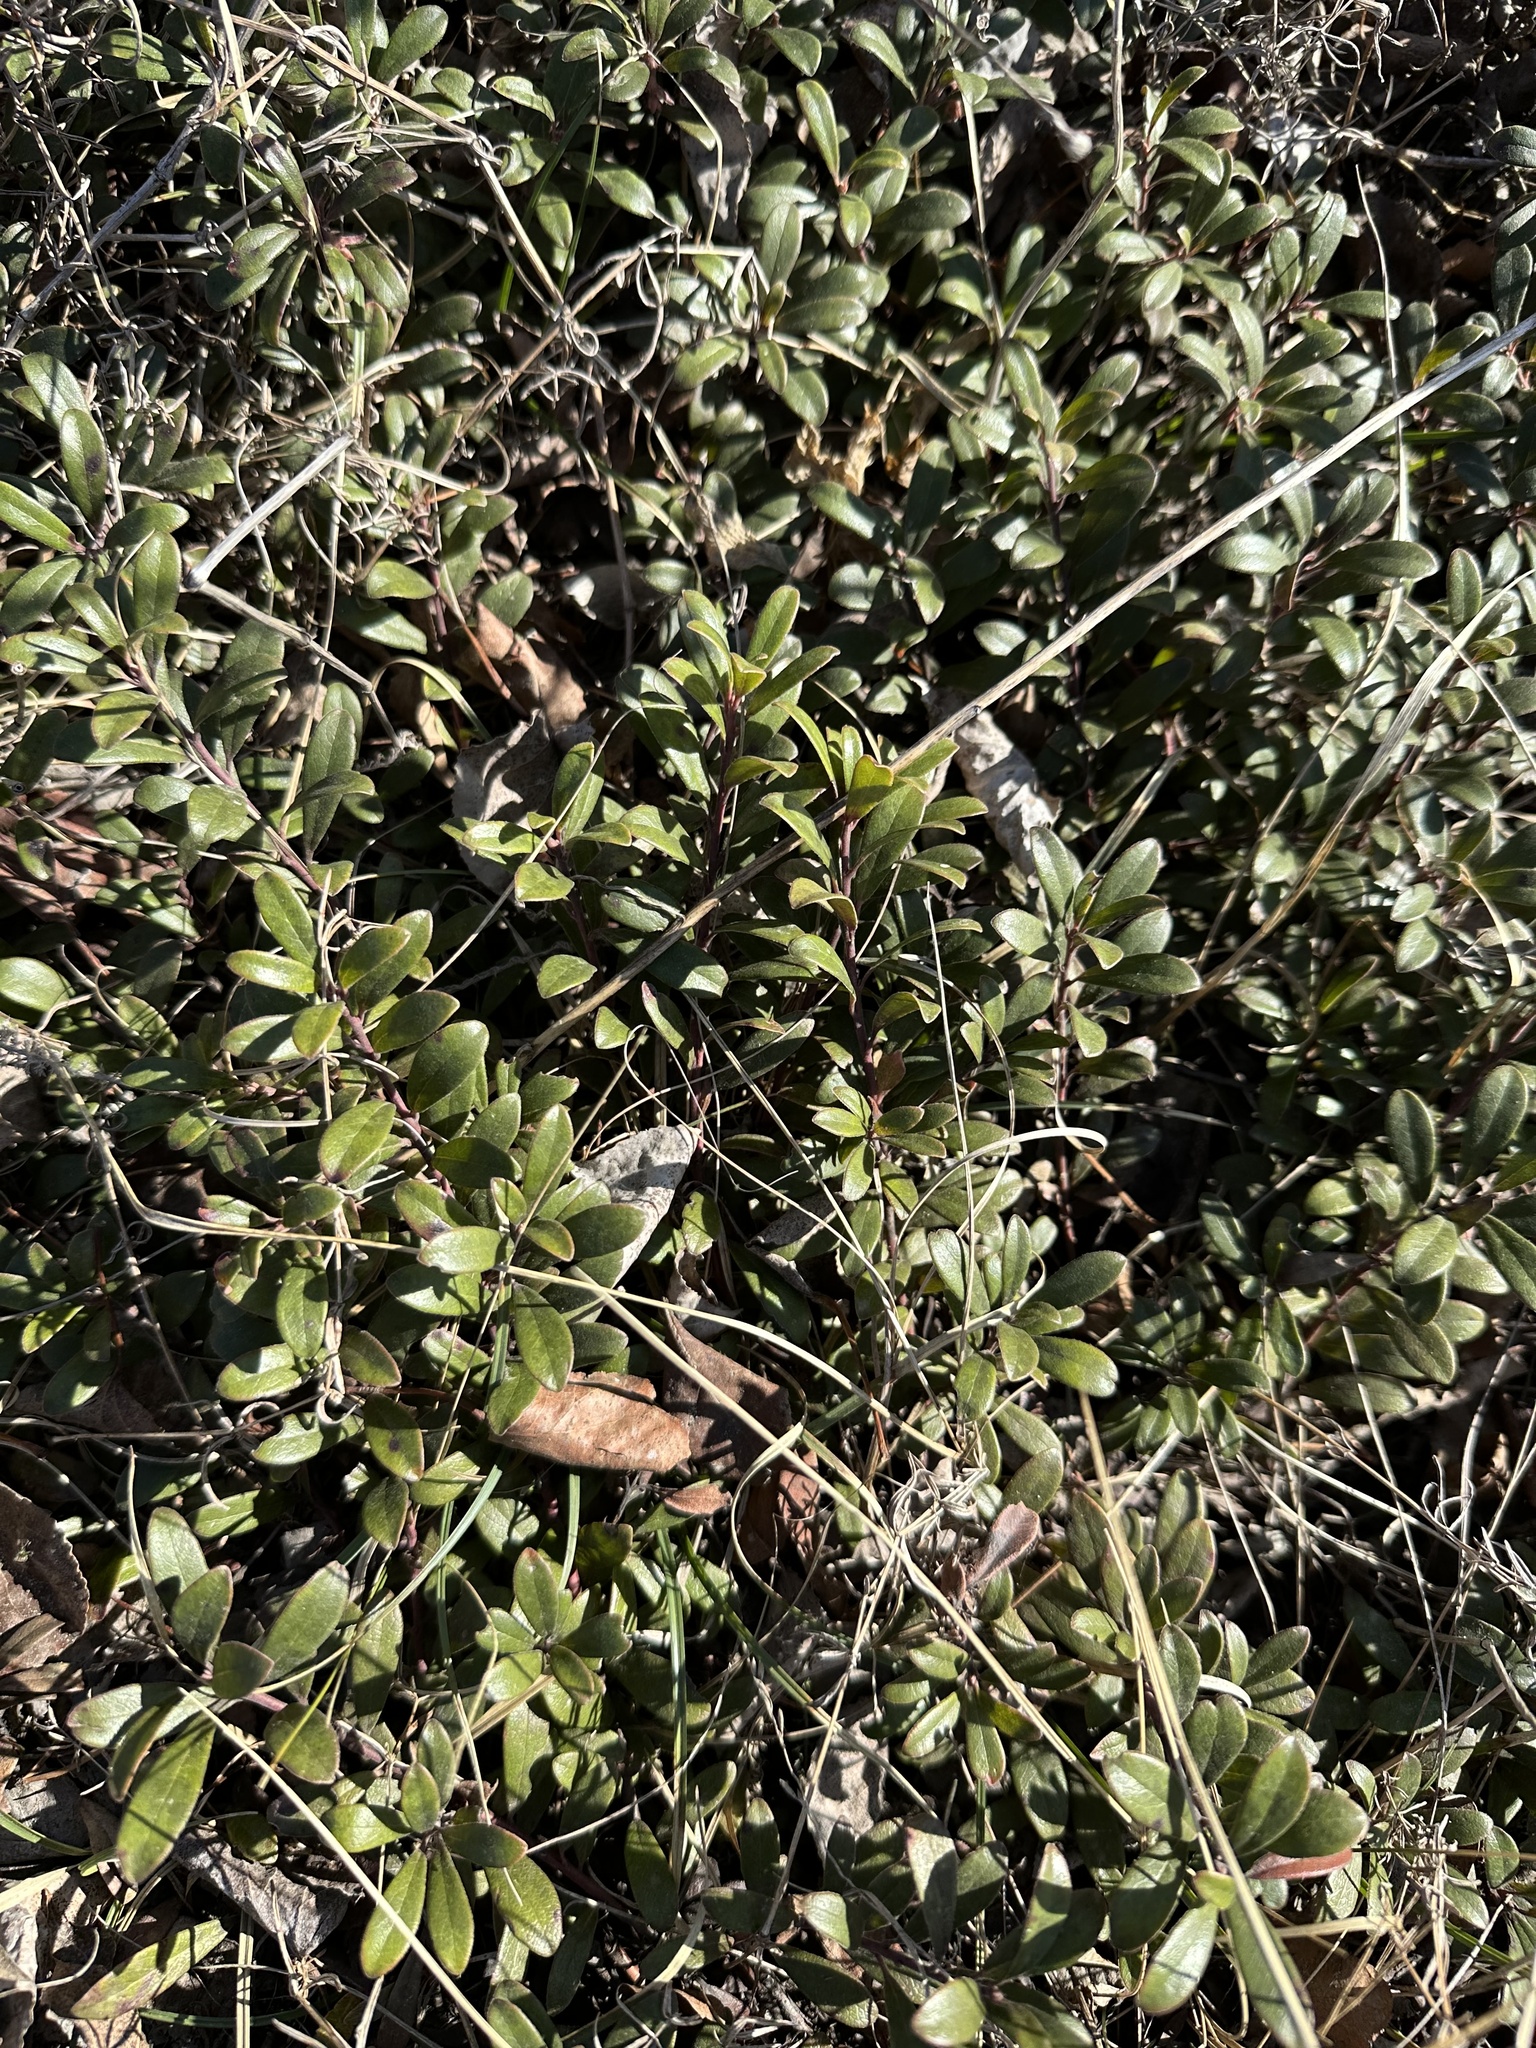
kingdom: Plantae
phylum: Tracheophyta
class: Magnoliopsida
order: Ericales
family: Ericaceae
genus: Arctostaphylos
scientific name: Arctostaphylos uva-ursi
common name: Bearberry
